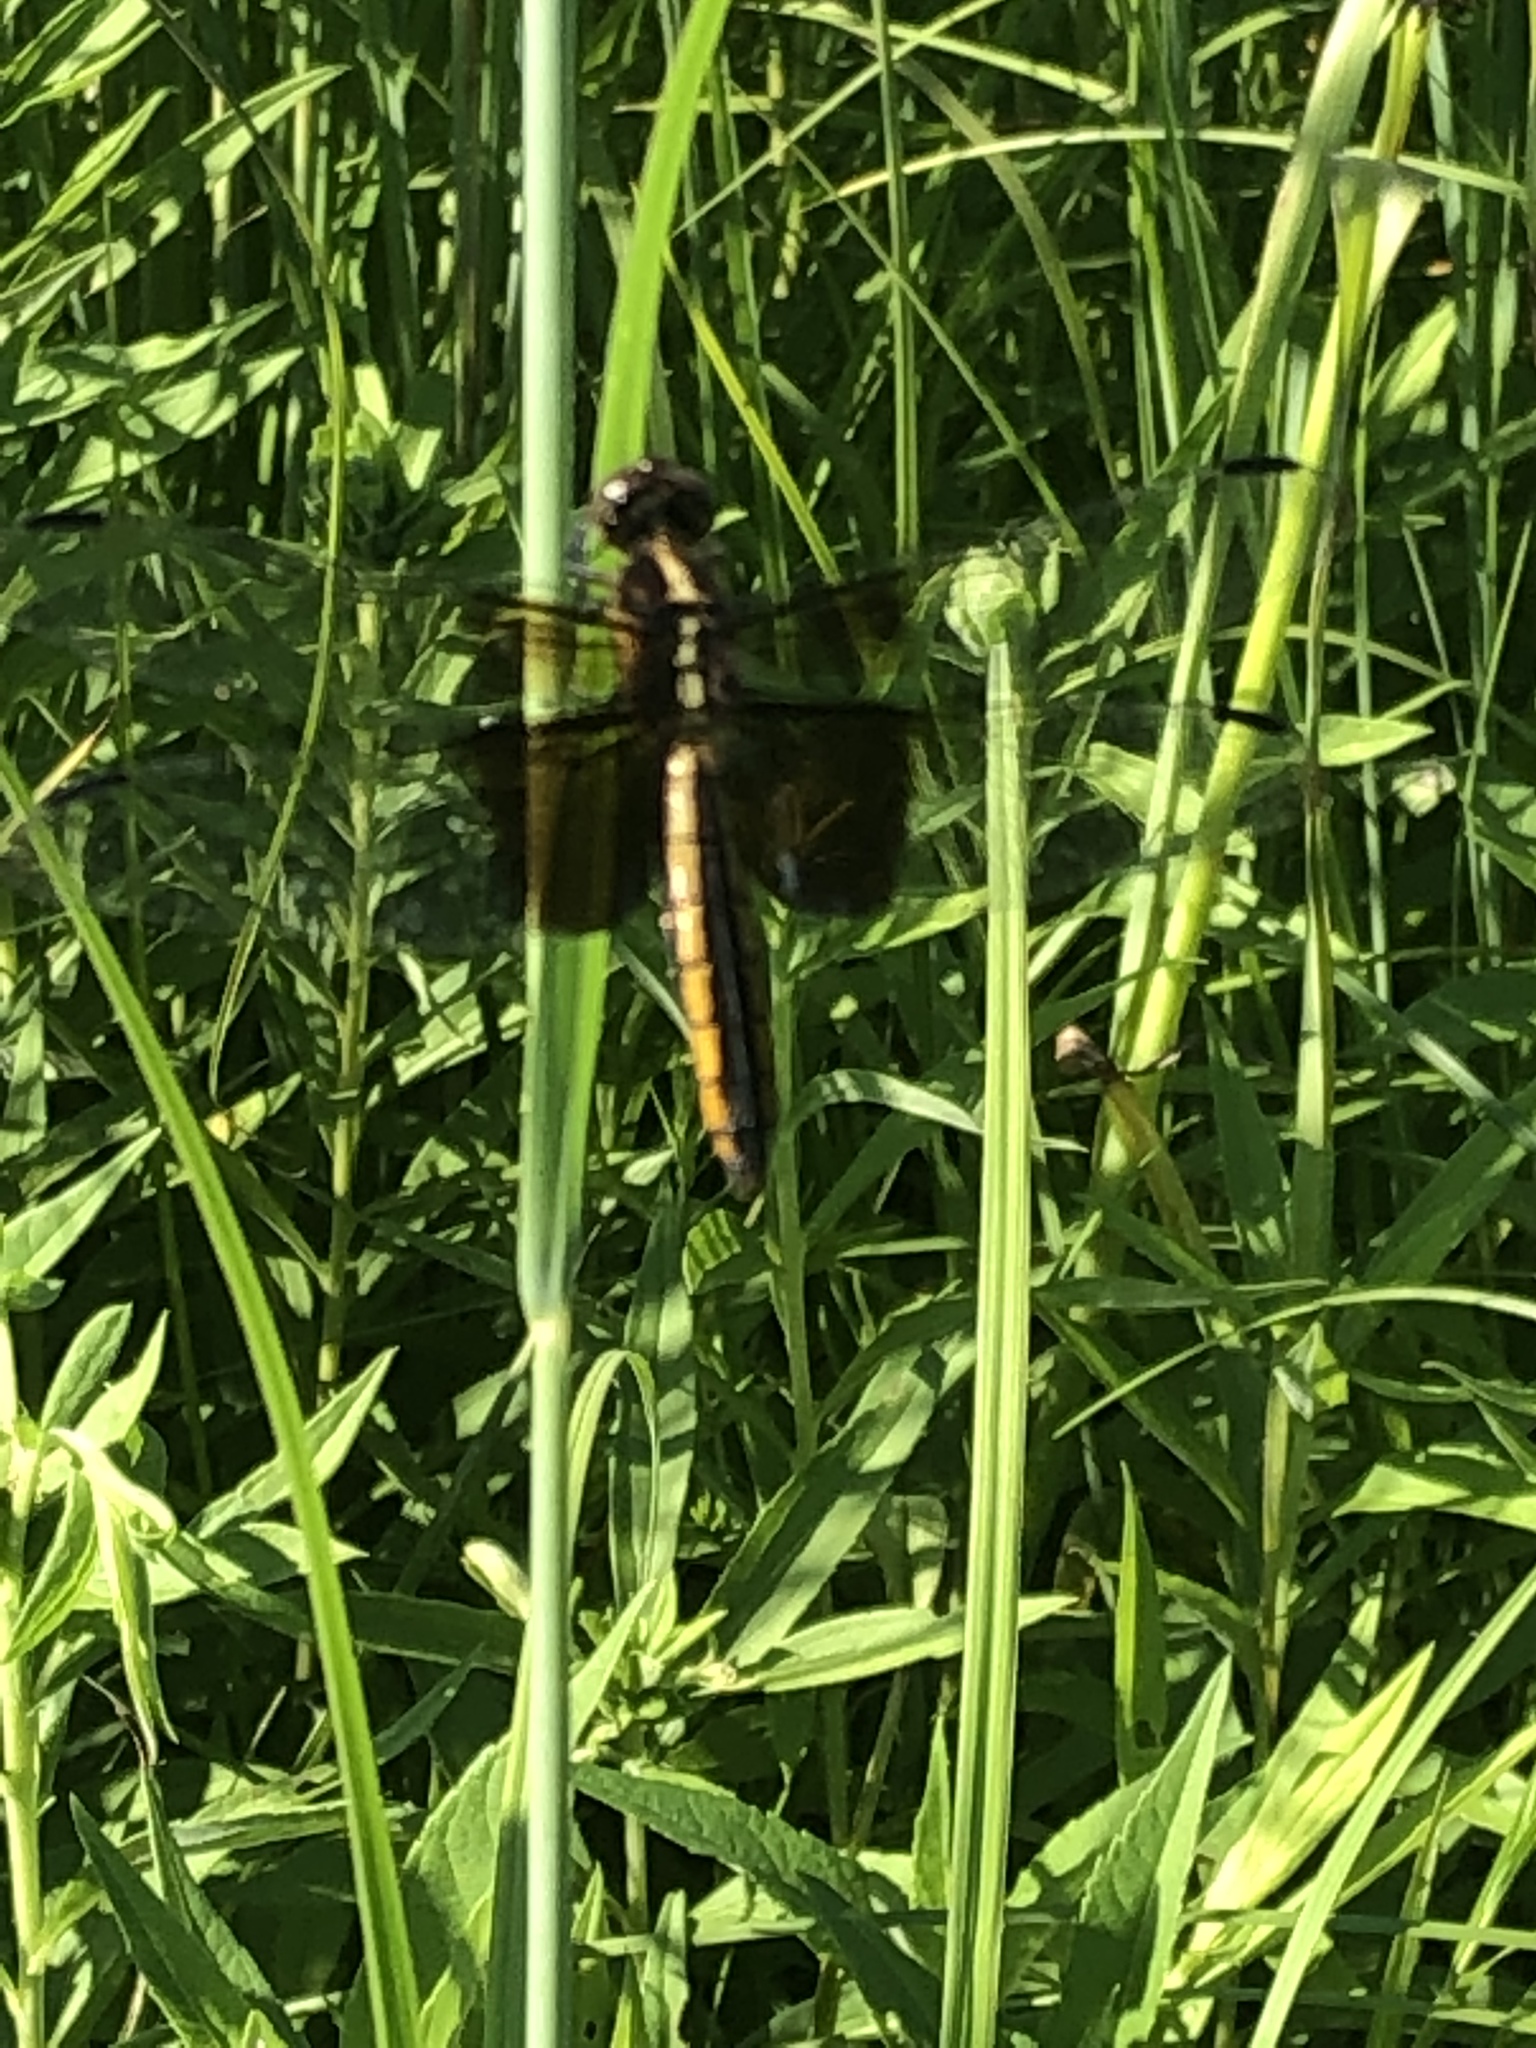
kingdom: Animalia
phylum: Arthropoda
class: Insecta
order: Odonata
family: Libellulidae
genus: Libellula
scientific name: Libellula luctuosa
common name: Widow skimmer
